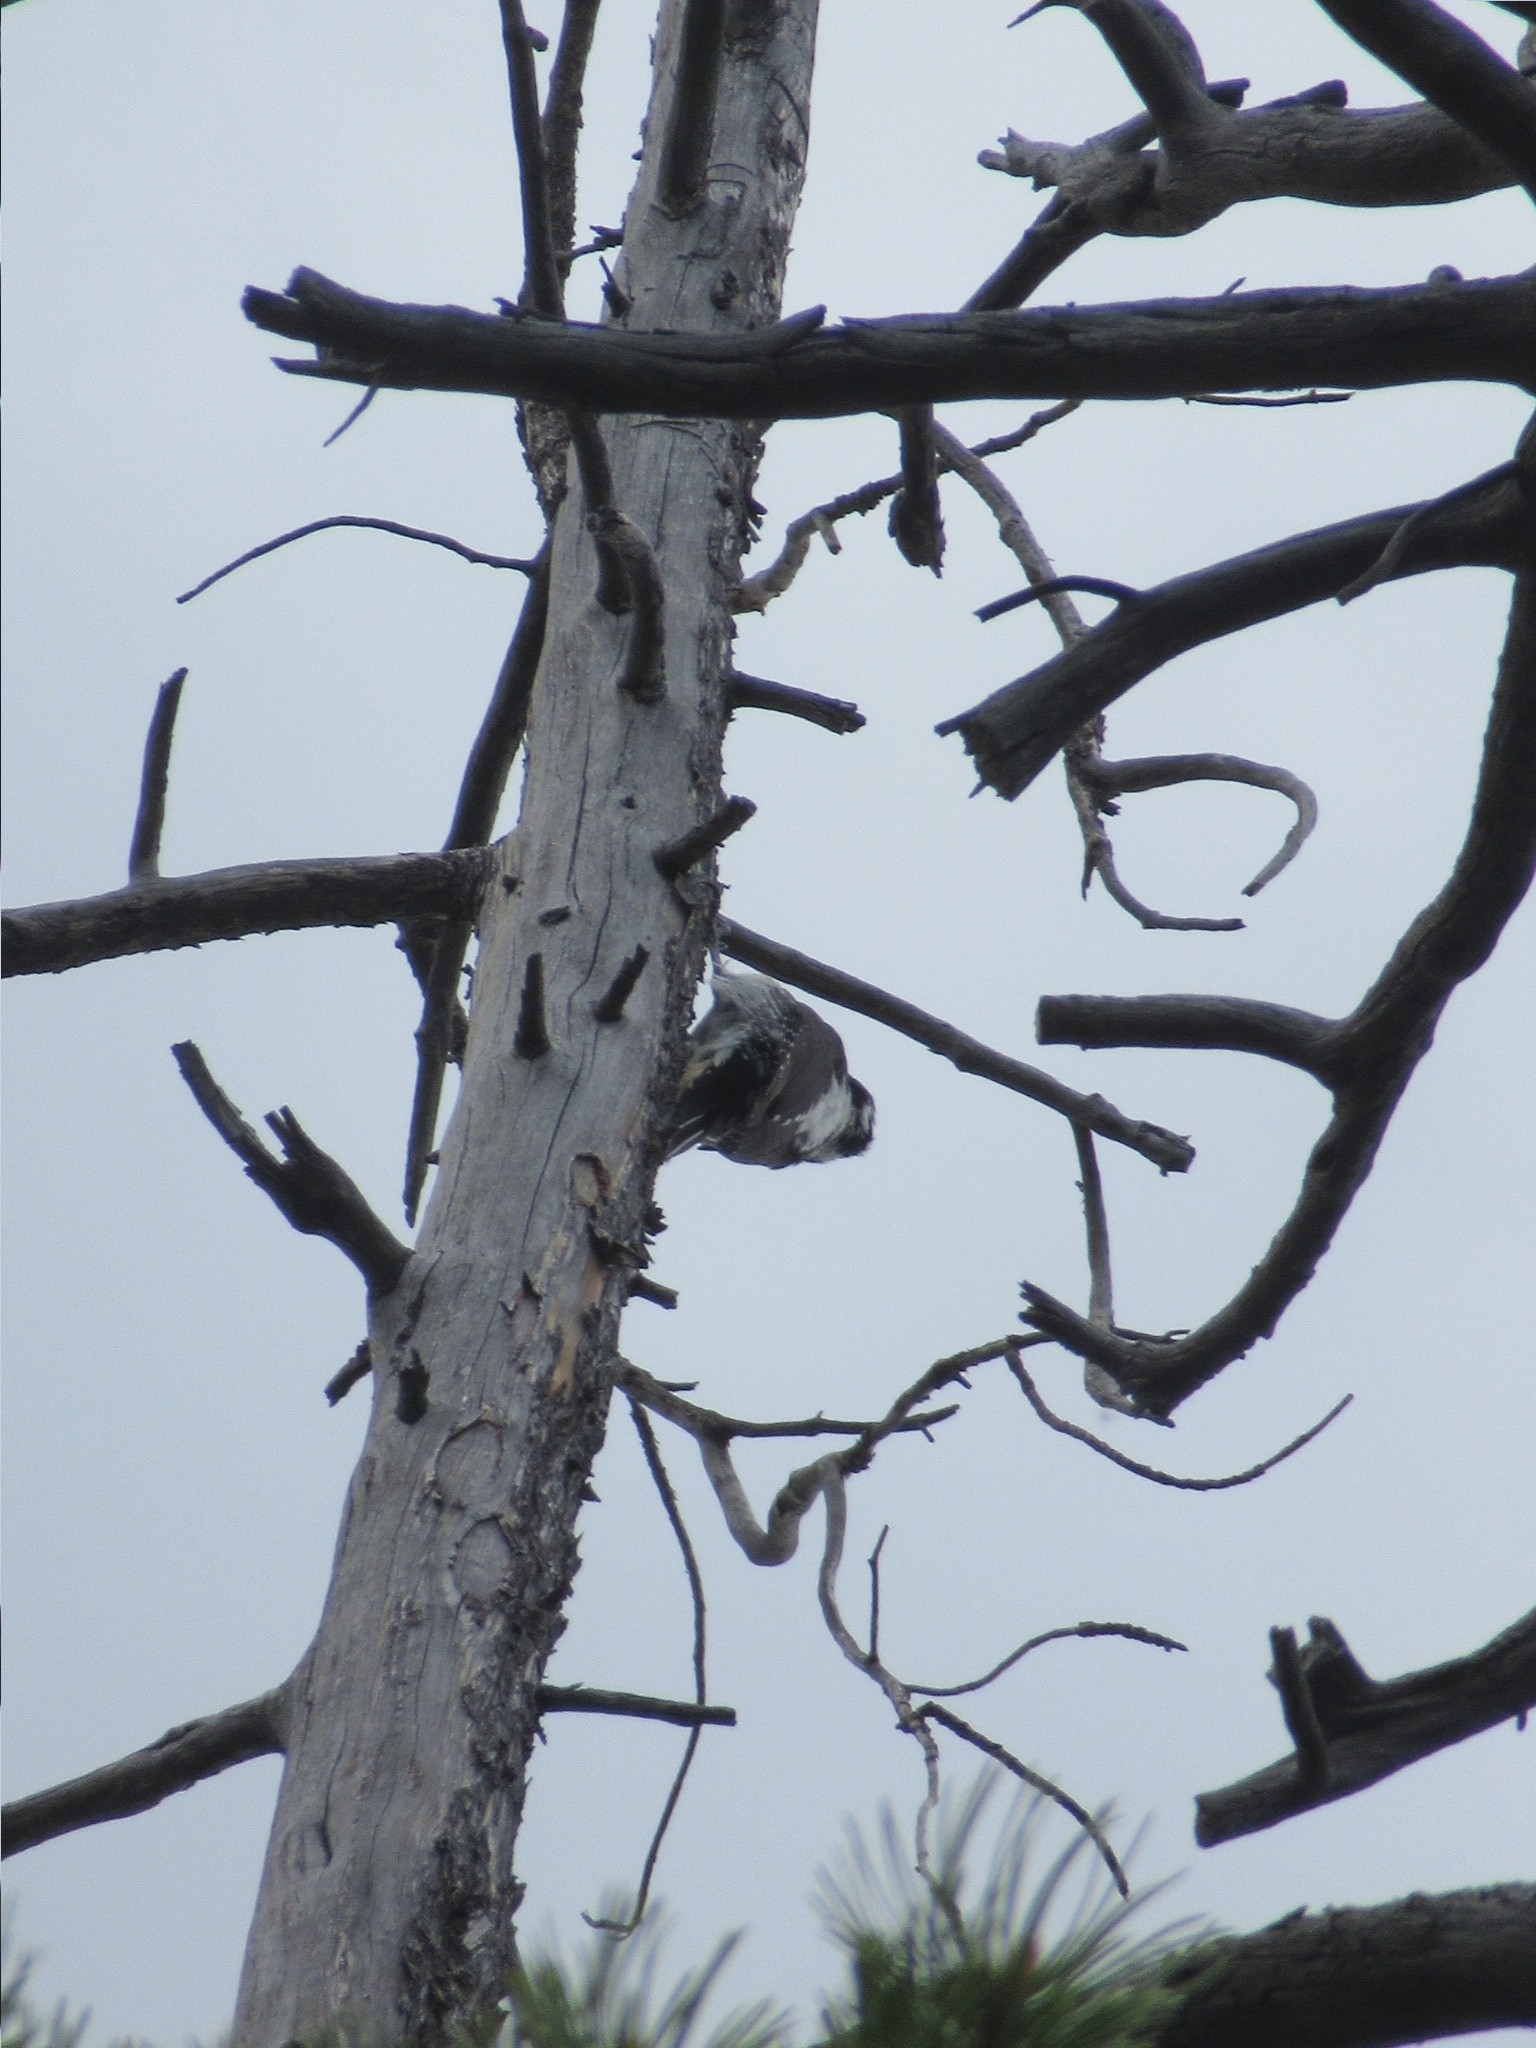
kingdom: Animalia
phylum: Chordata
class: Aves
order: Piciformes
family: Picidae
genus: Picoides
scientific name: Picoides dorsalis
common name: American three-toed woodpecker
